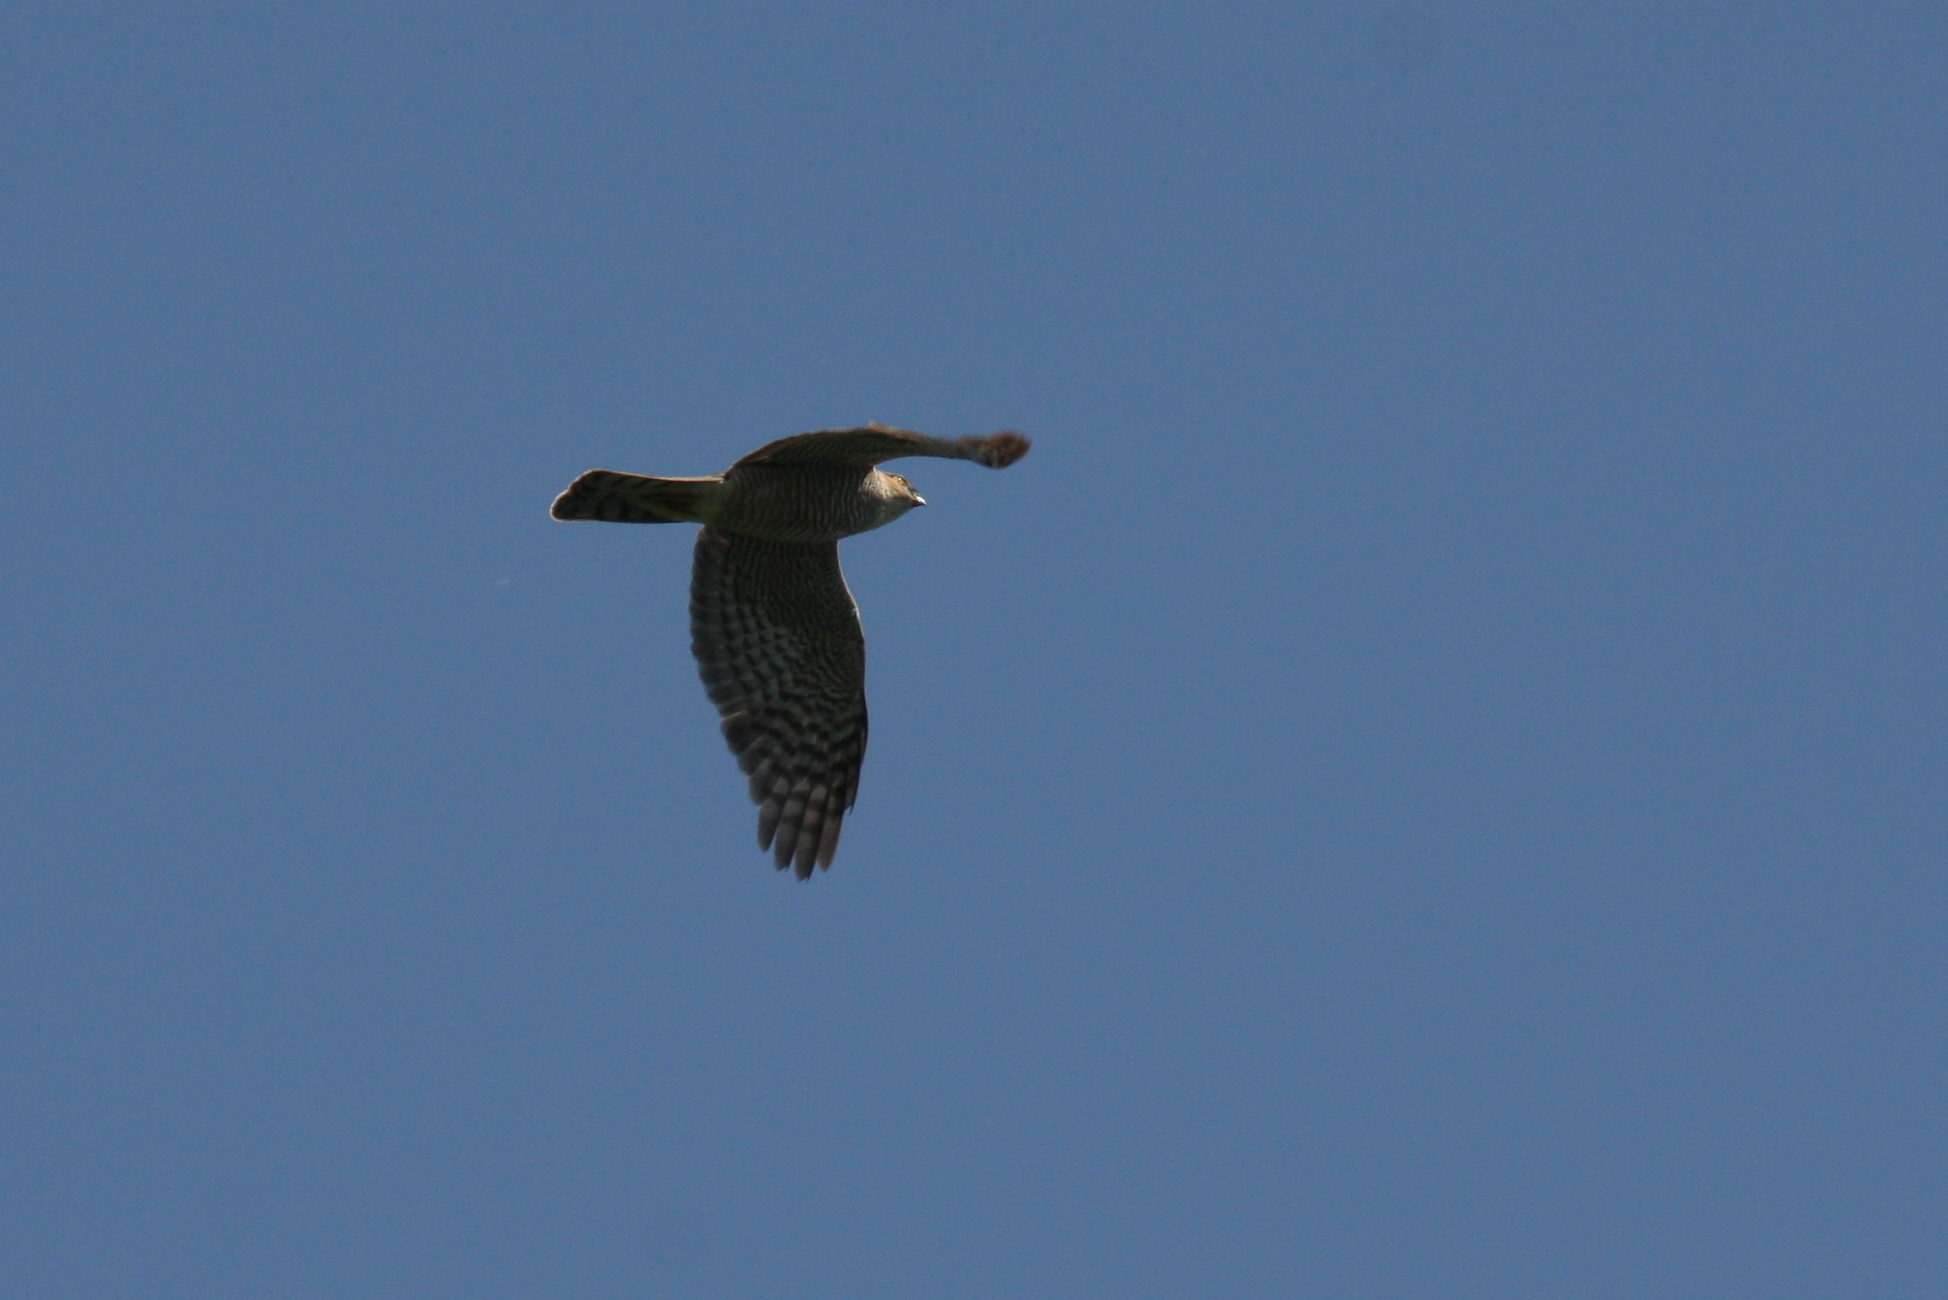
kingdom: Animalia
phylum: Chordata
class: Aves
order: Accipitriformes
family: Accipitridae
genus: Accipiter
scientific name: Accipiter nisus
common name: Eurasian sparrowhawk
